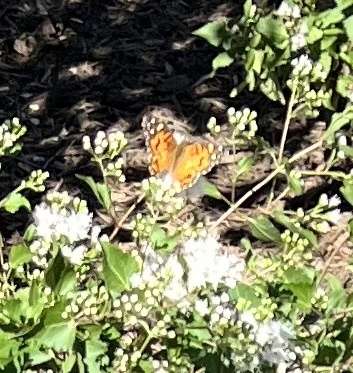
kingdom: Animalia
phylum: Arthropoda
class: Insecta
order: Lepidoptera
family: Nymphalidae
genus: Vanessa
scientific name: Vanessa virginiensis
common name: American lady
